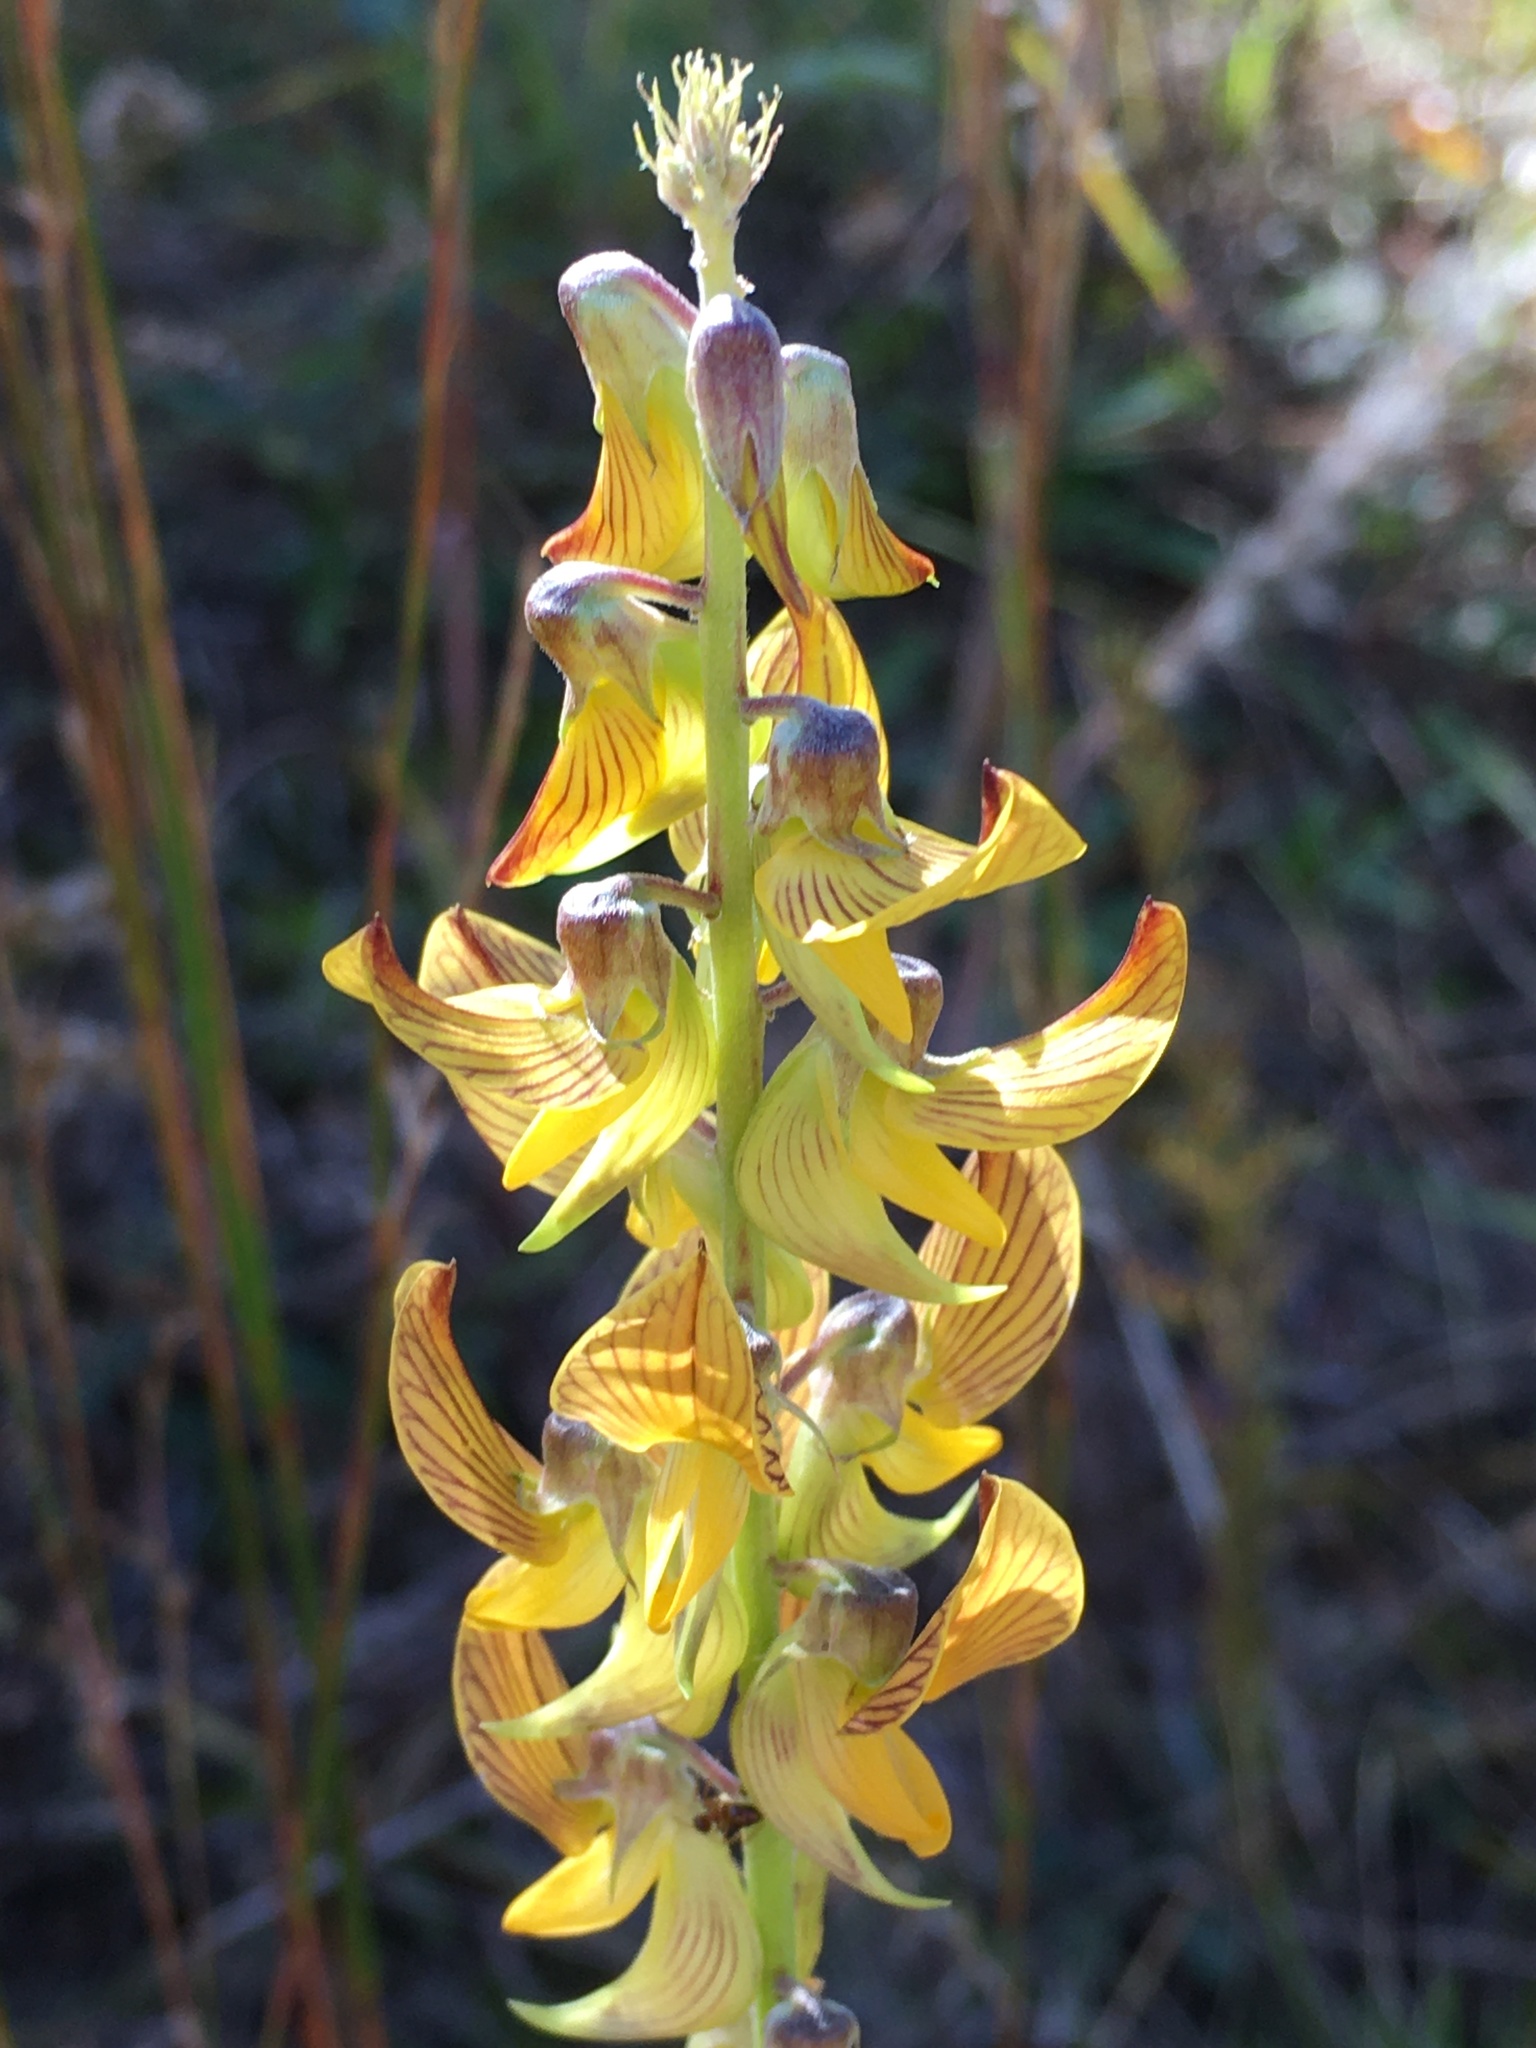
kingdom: Plantae
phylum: Tracheophyta
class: Magnoliopsida
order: Fabales
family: Fabaceae
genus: Crotalaria
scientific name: Crotalaria pallida
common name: Smooth rattlebox
